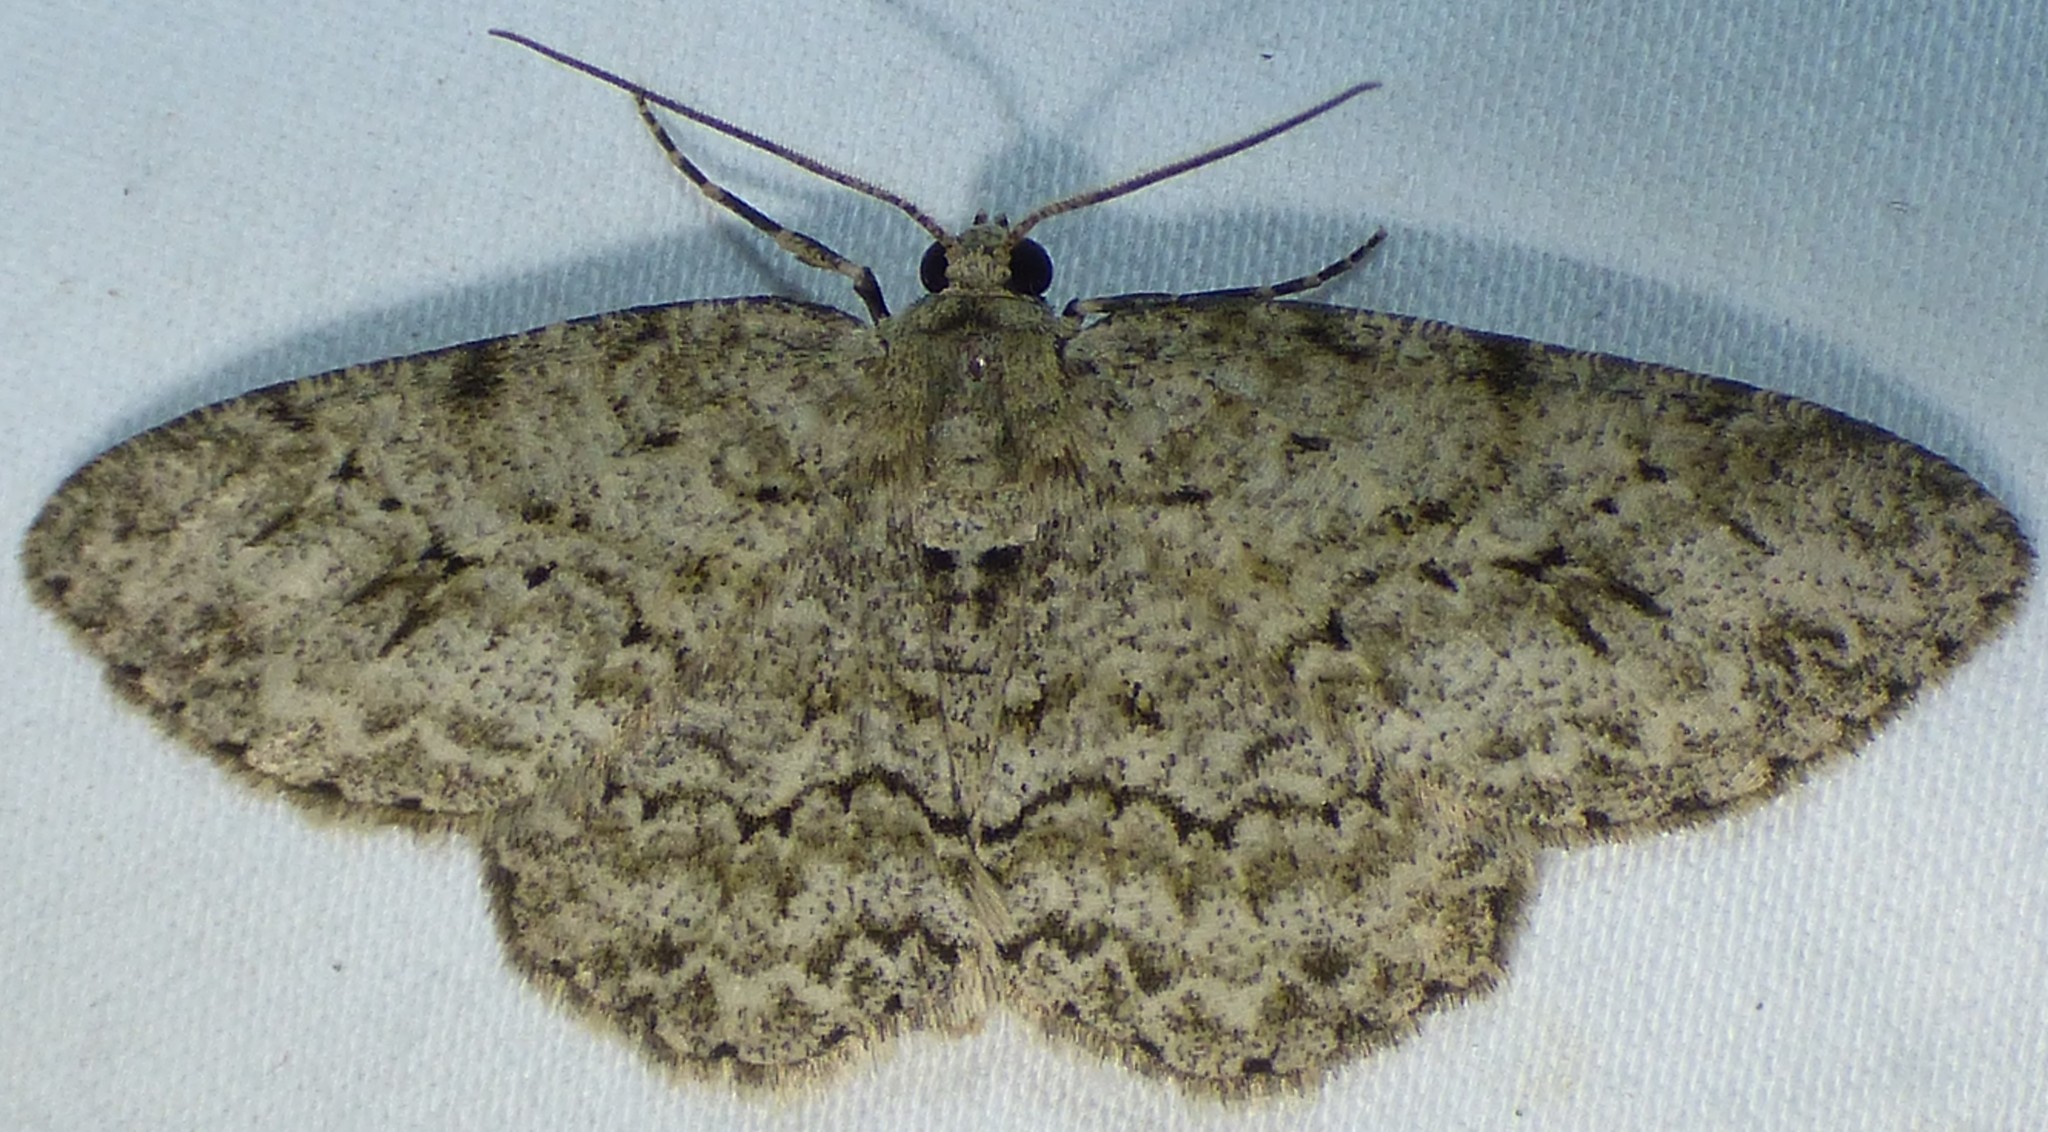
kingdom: Animalia
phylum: Arthropoda
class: Insecta
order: Lepidoptera
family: Geometridae
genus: Ectropis
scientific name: Ectropis crepuscularia
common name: Engrailed
